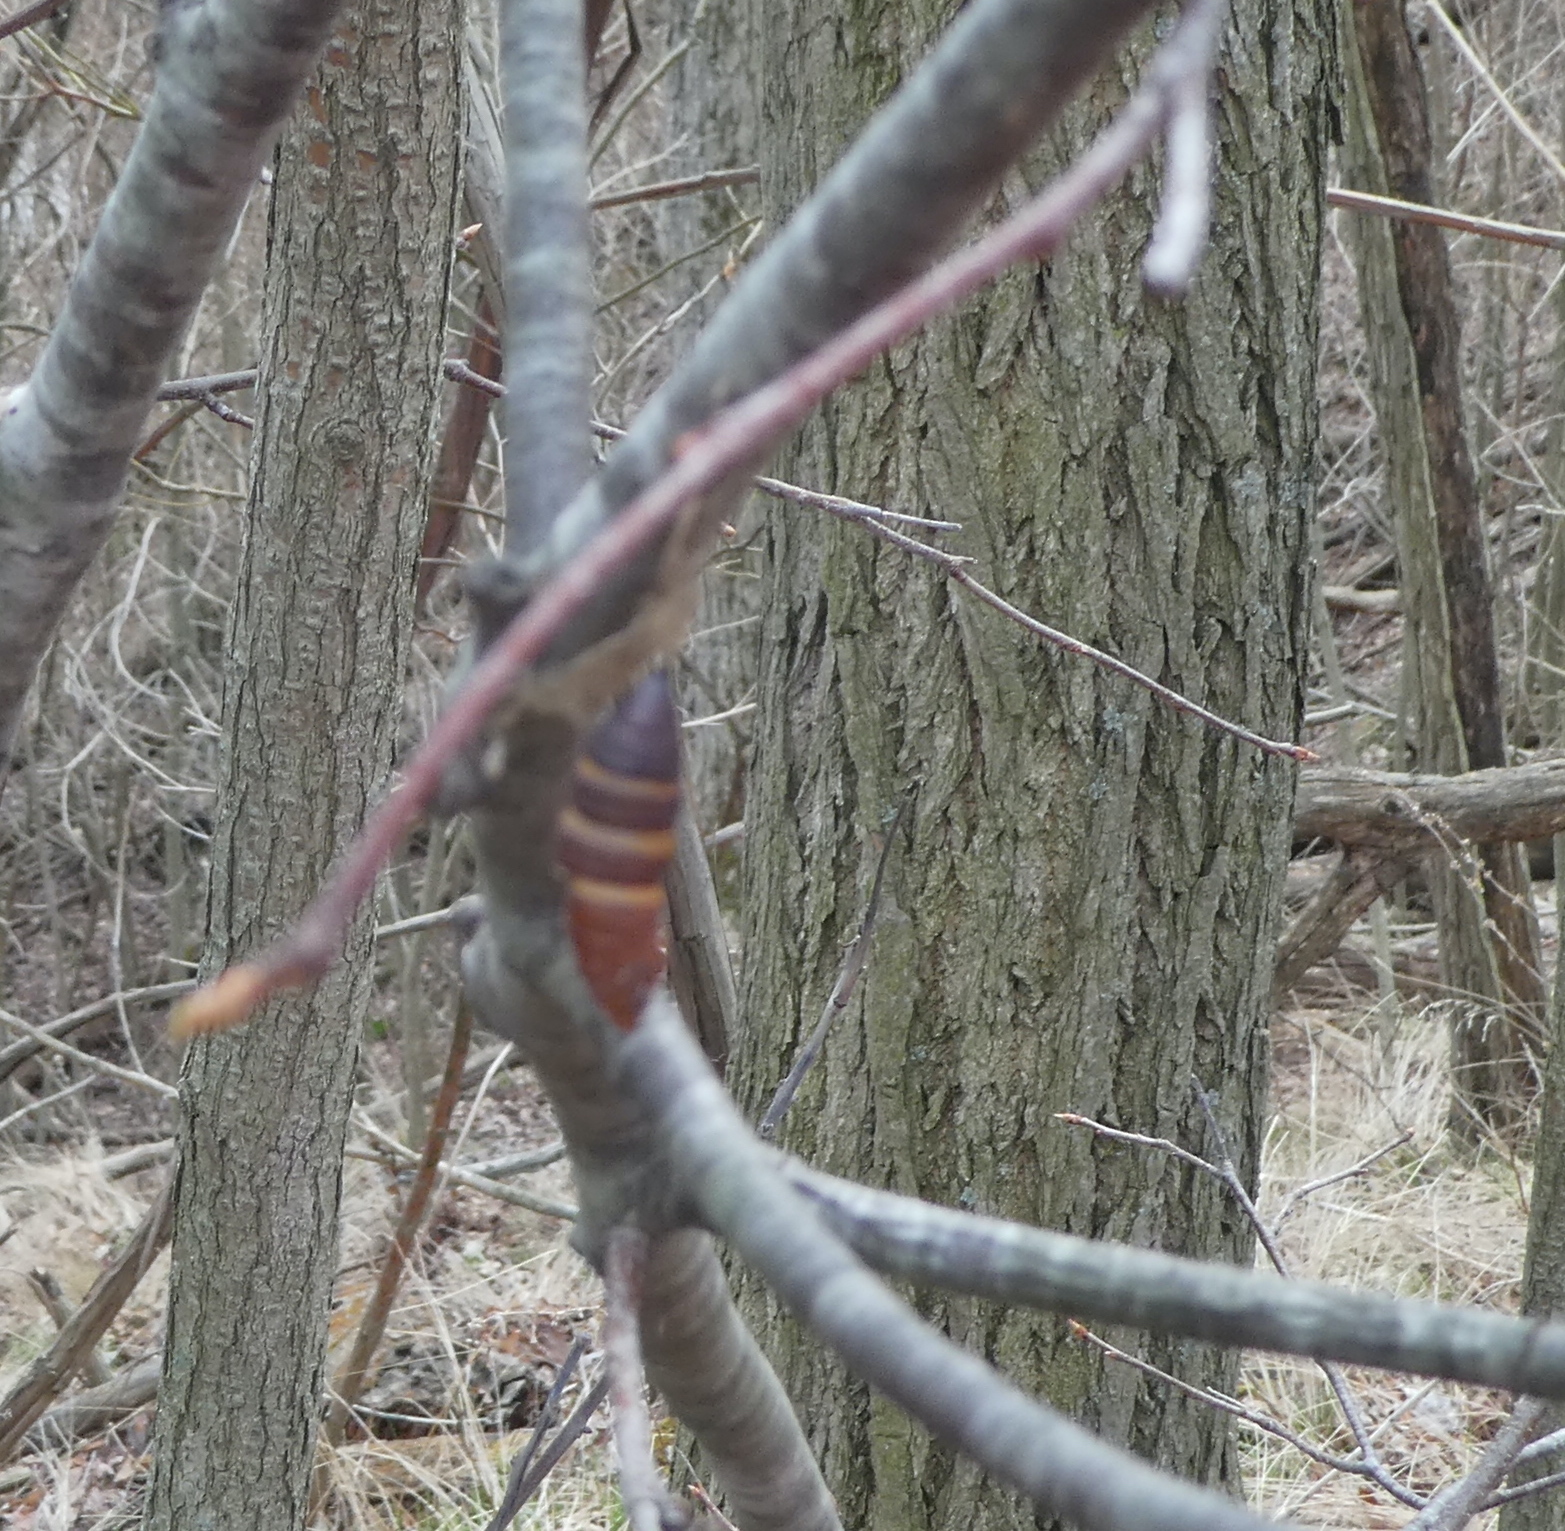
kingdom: Animalia
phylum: Arthropoda
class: Insecta
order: Lepidoptera
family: Erebidae
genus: Lymantria
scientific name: Lymantria dispar
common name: Gypsy moth
